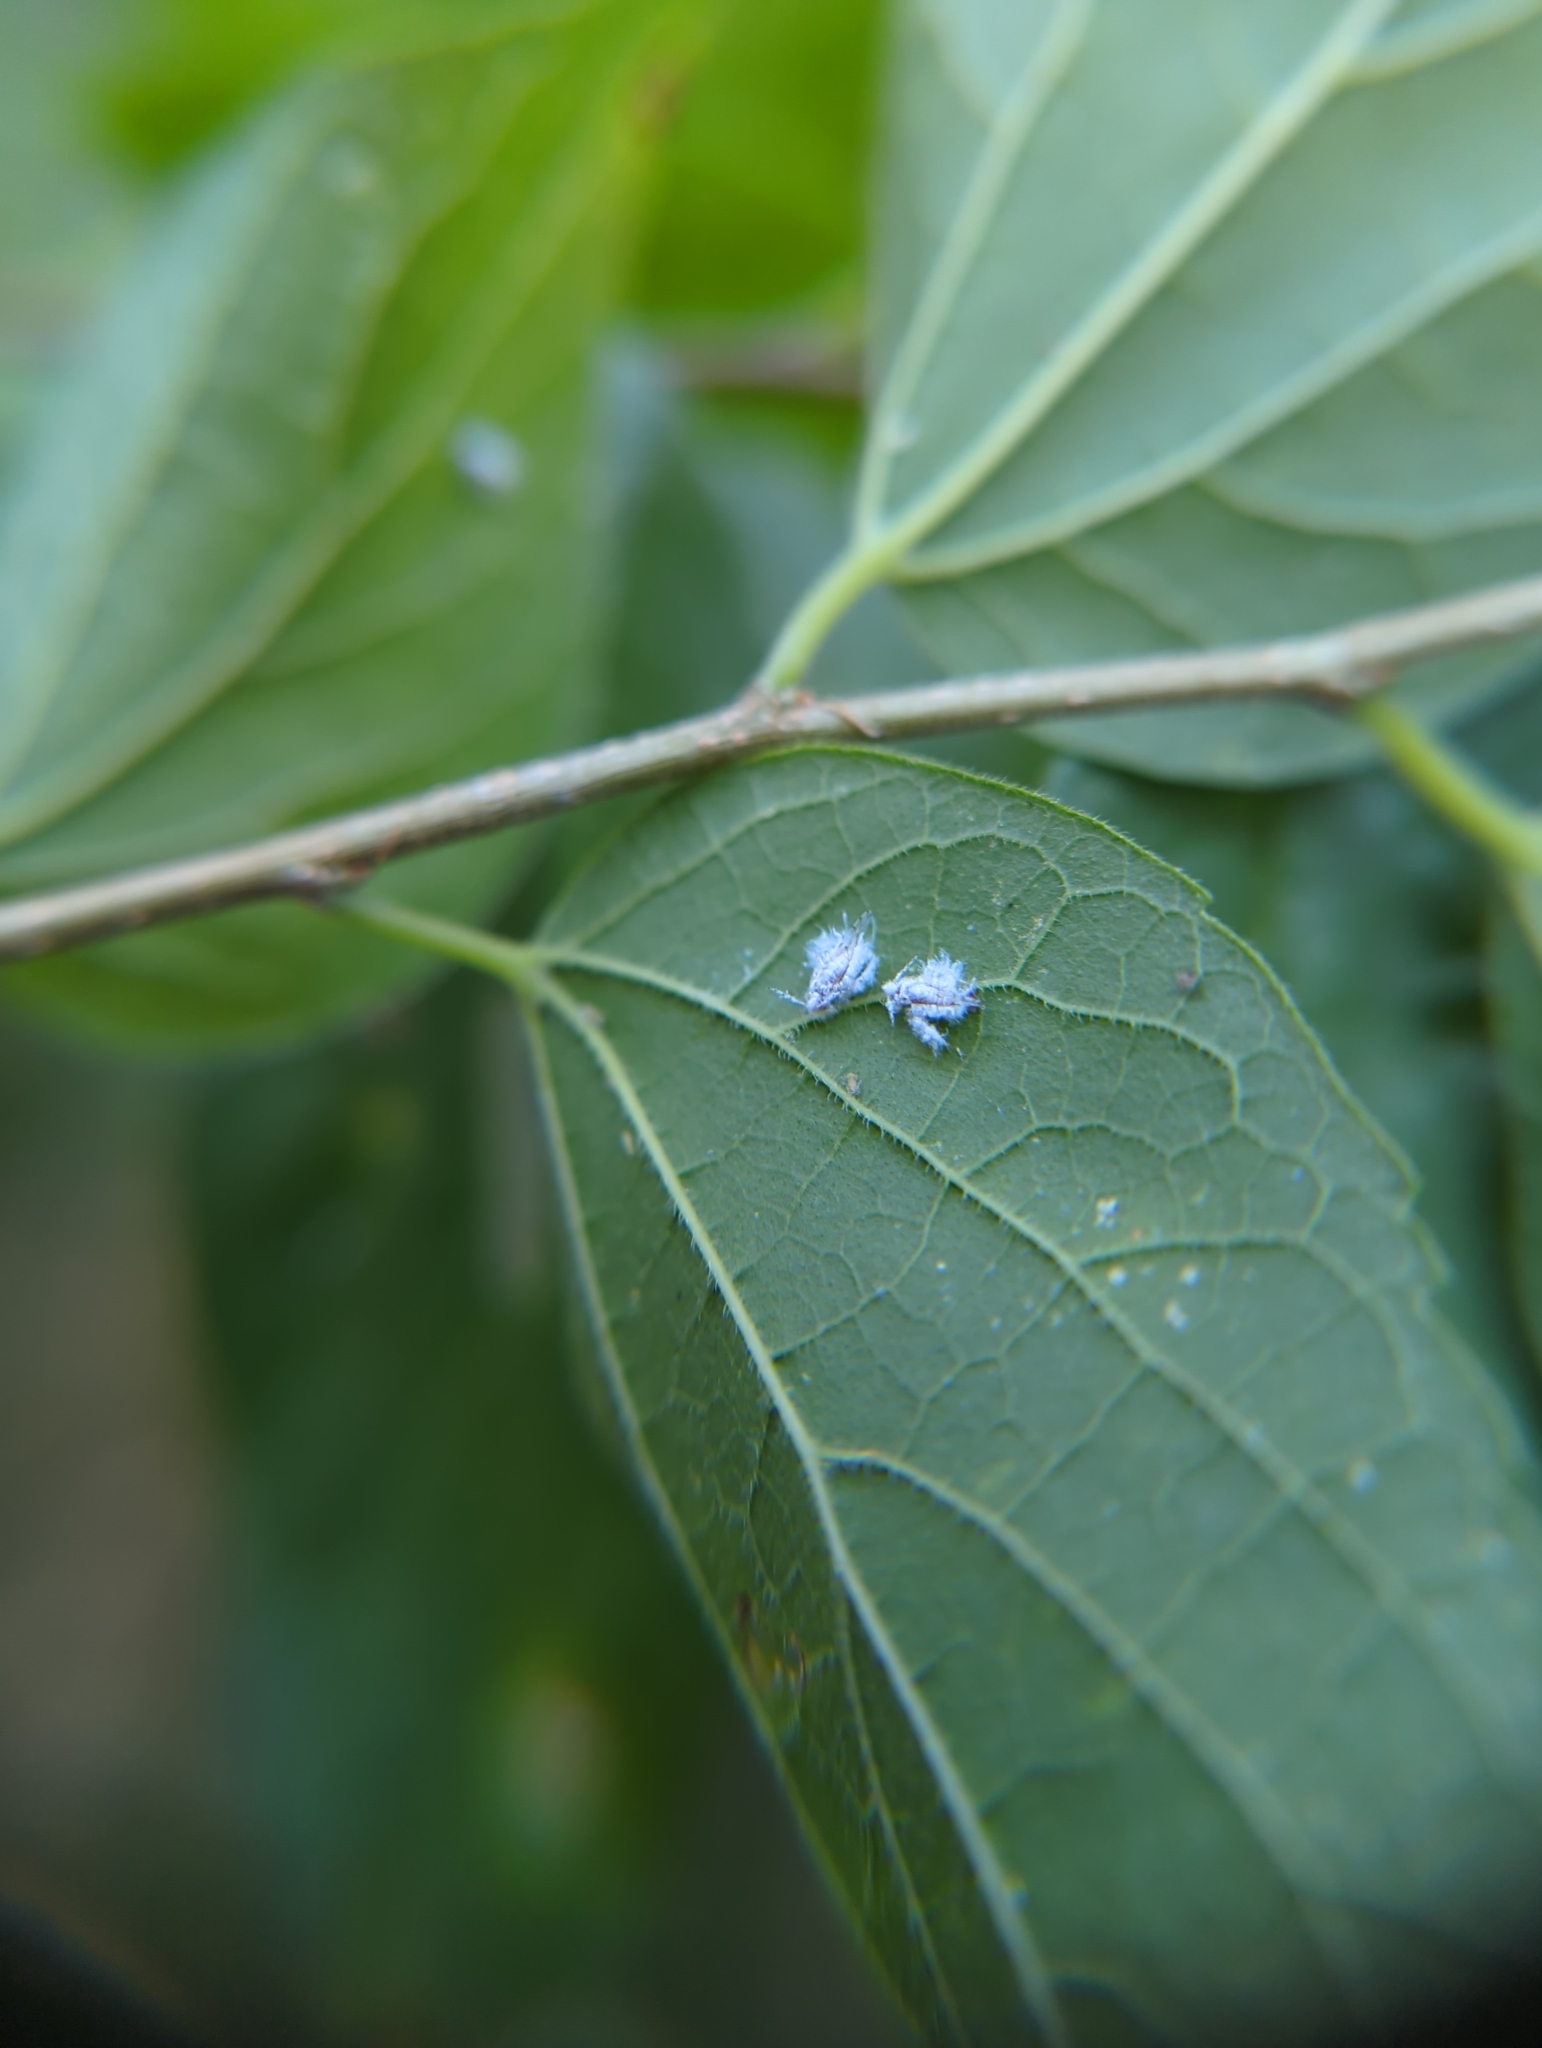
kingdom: Animalia
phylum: Arthropoda
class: Insecta
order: Hemiptera
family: Aphididae
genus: Shivaphis
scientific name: Shivaphis celti
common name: Asian wooly hackberry aphid
